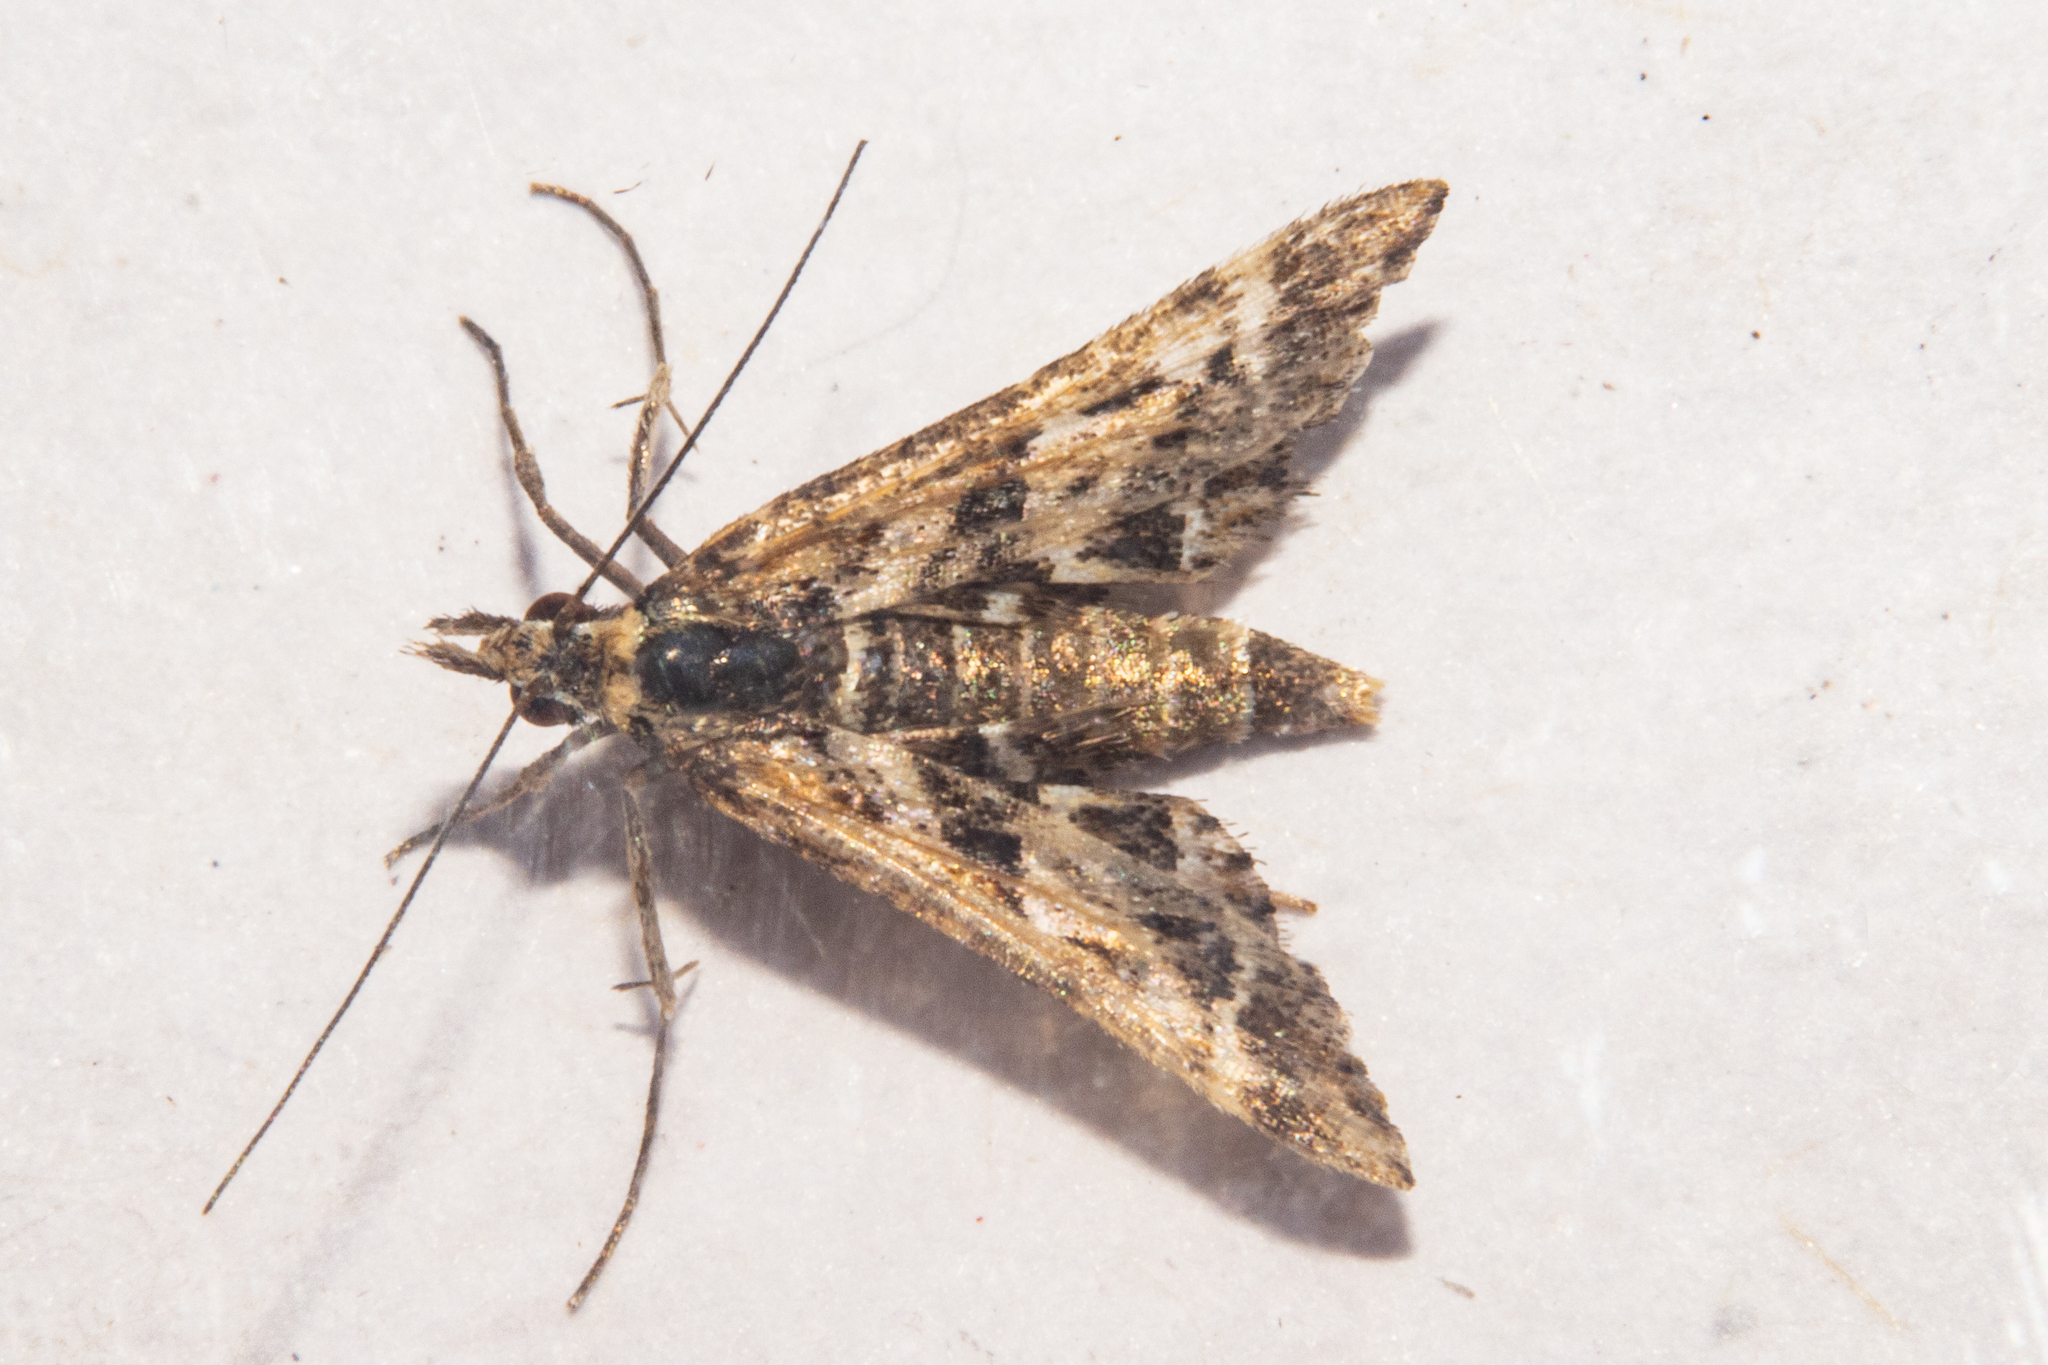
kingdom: Animalia
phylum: Arthropoda
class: Insecta
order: Lepidoptera
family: Crambidae
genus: Diasemia
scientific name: Diasemia grammalis
